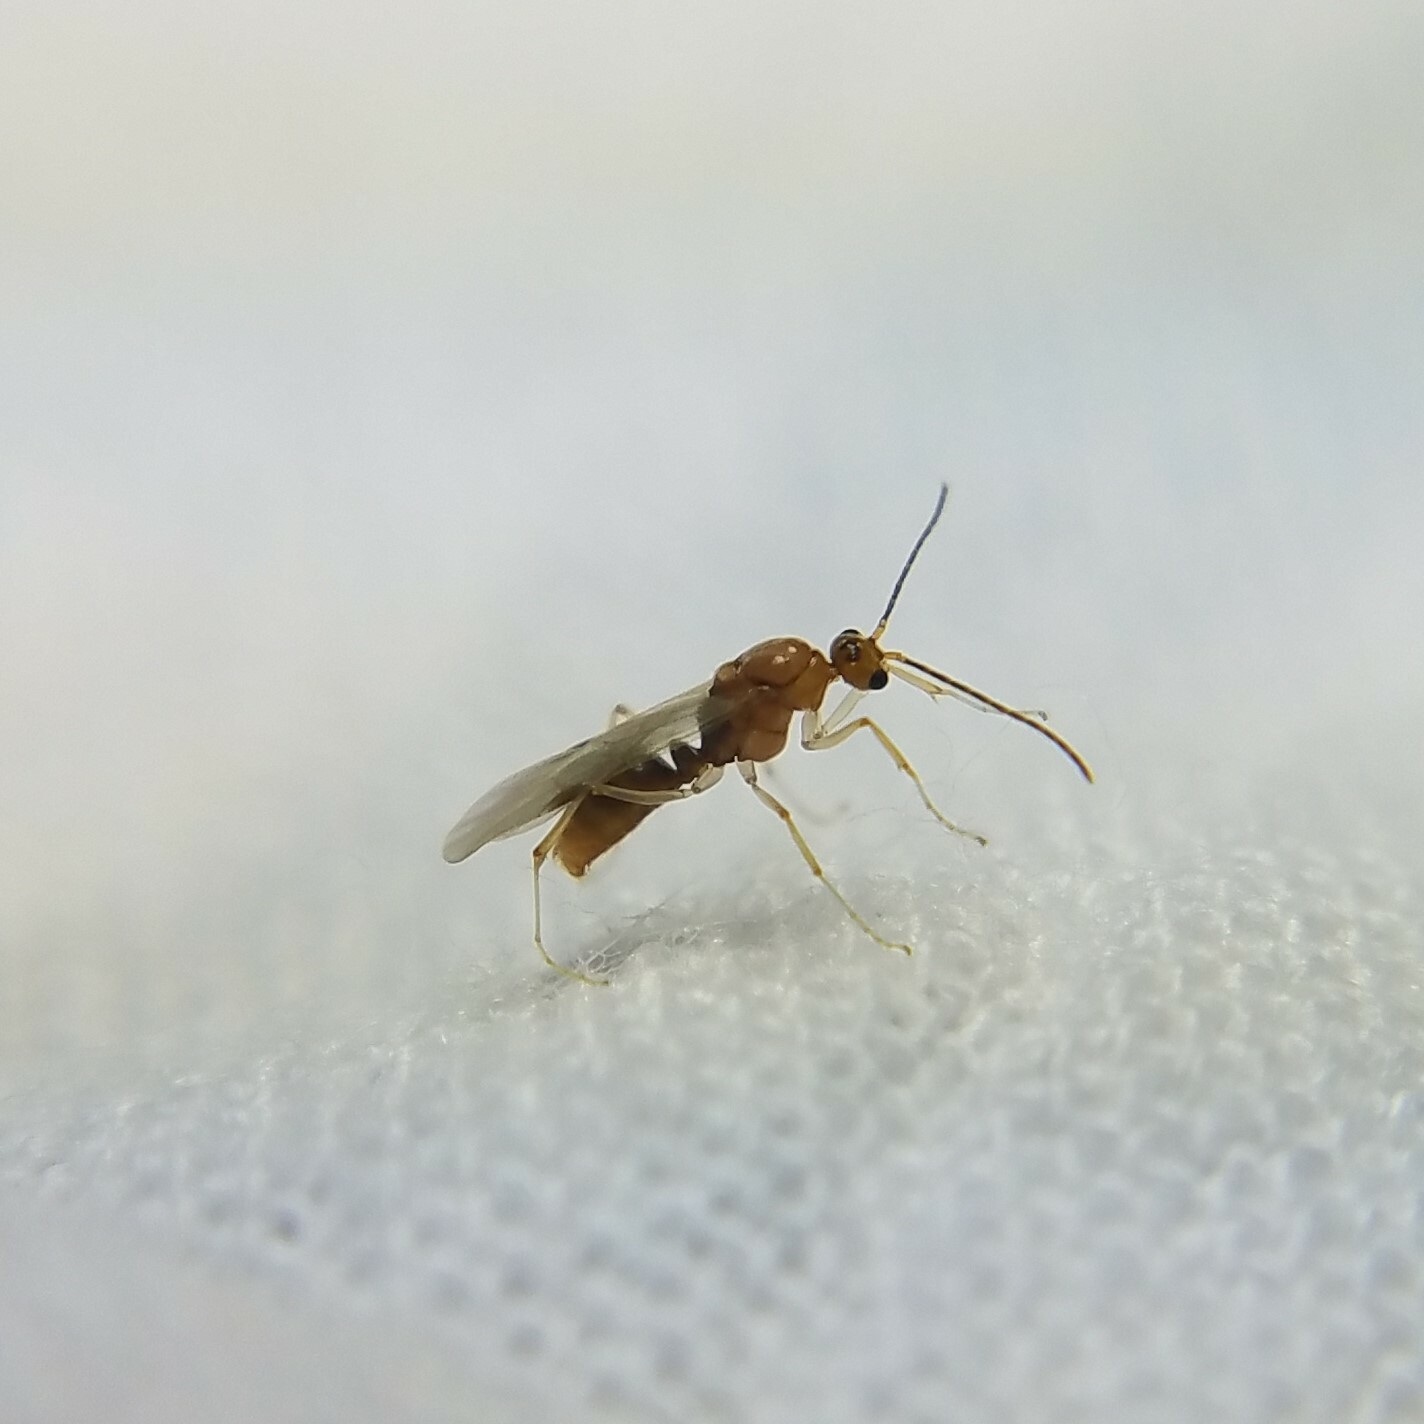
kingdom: Animalia
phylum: Arthropoda
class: Insecta
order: Hymenoptera
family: Formicidae
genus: Pachycondyla
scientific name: Pachycondyla chinensis
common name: Asian needle ant
